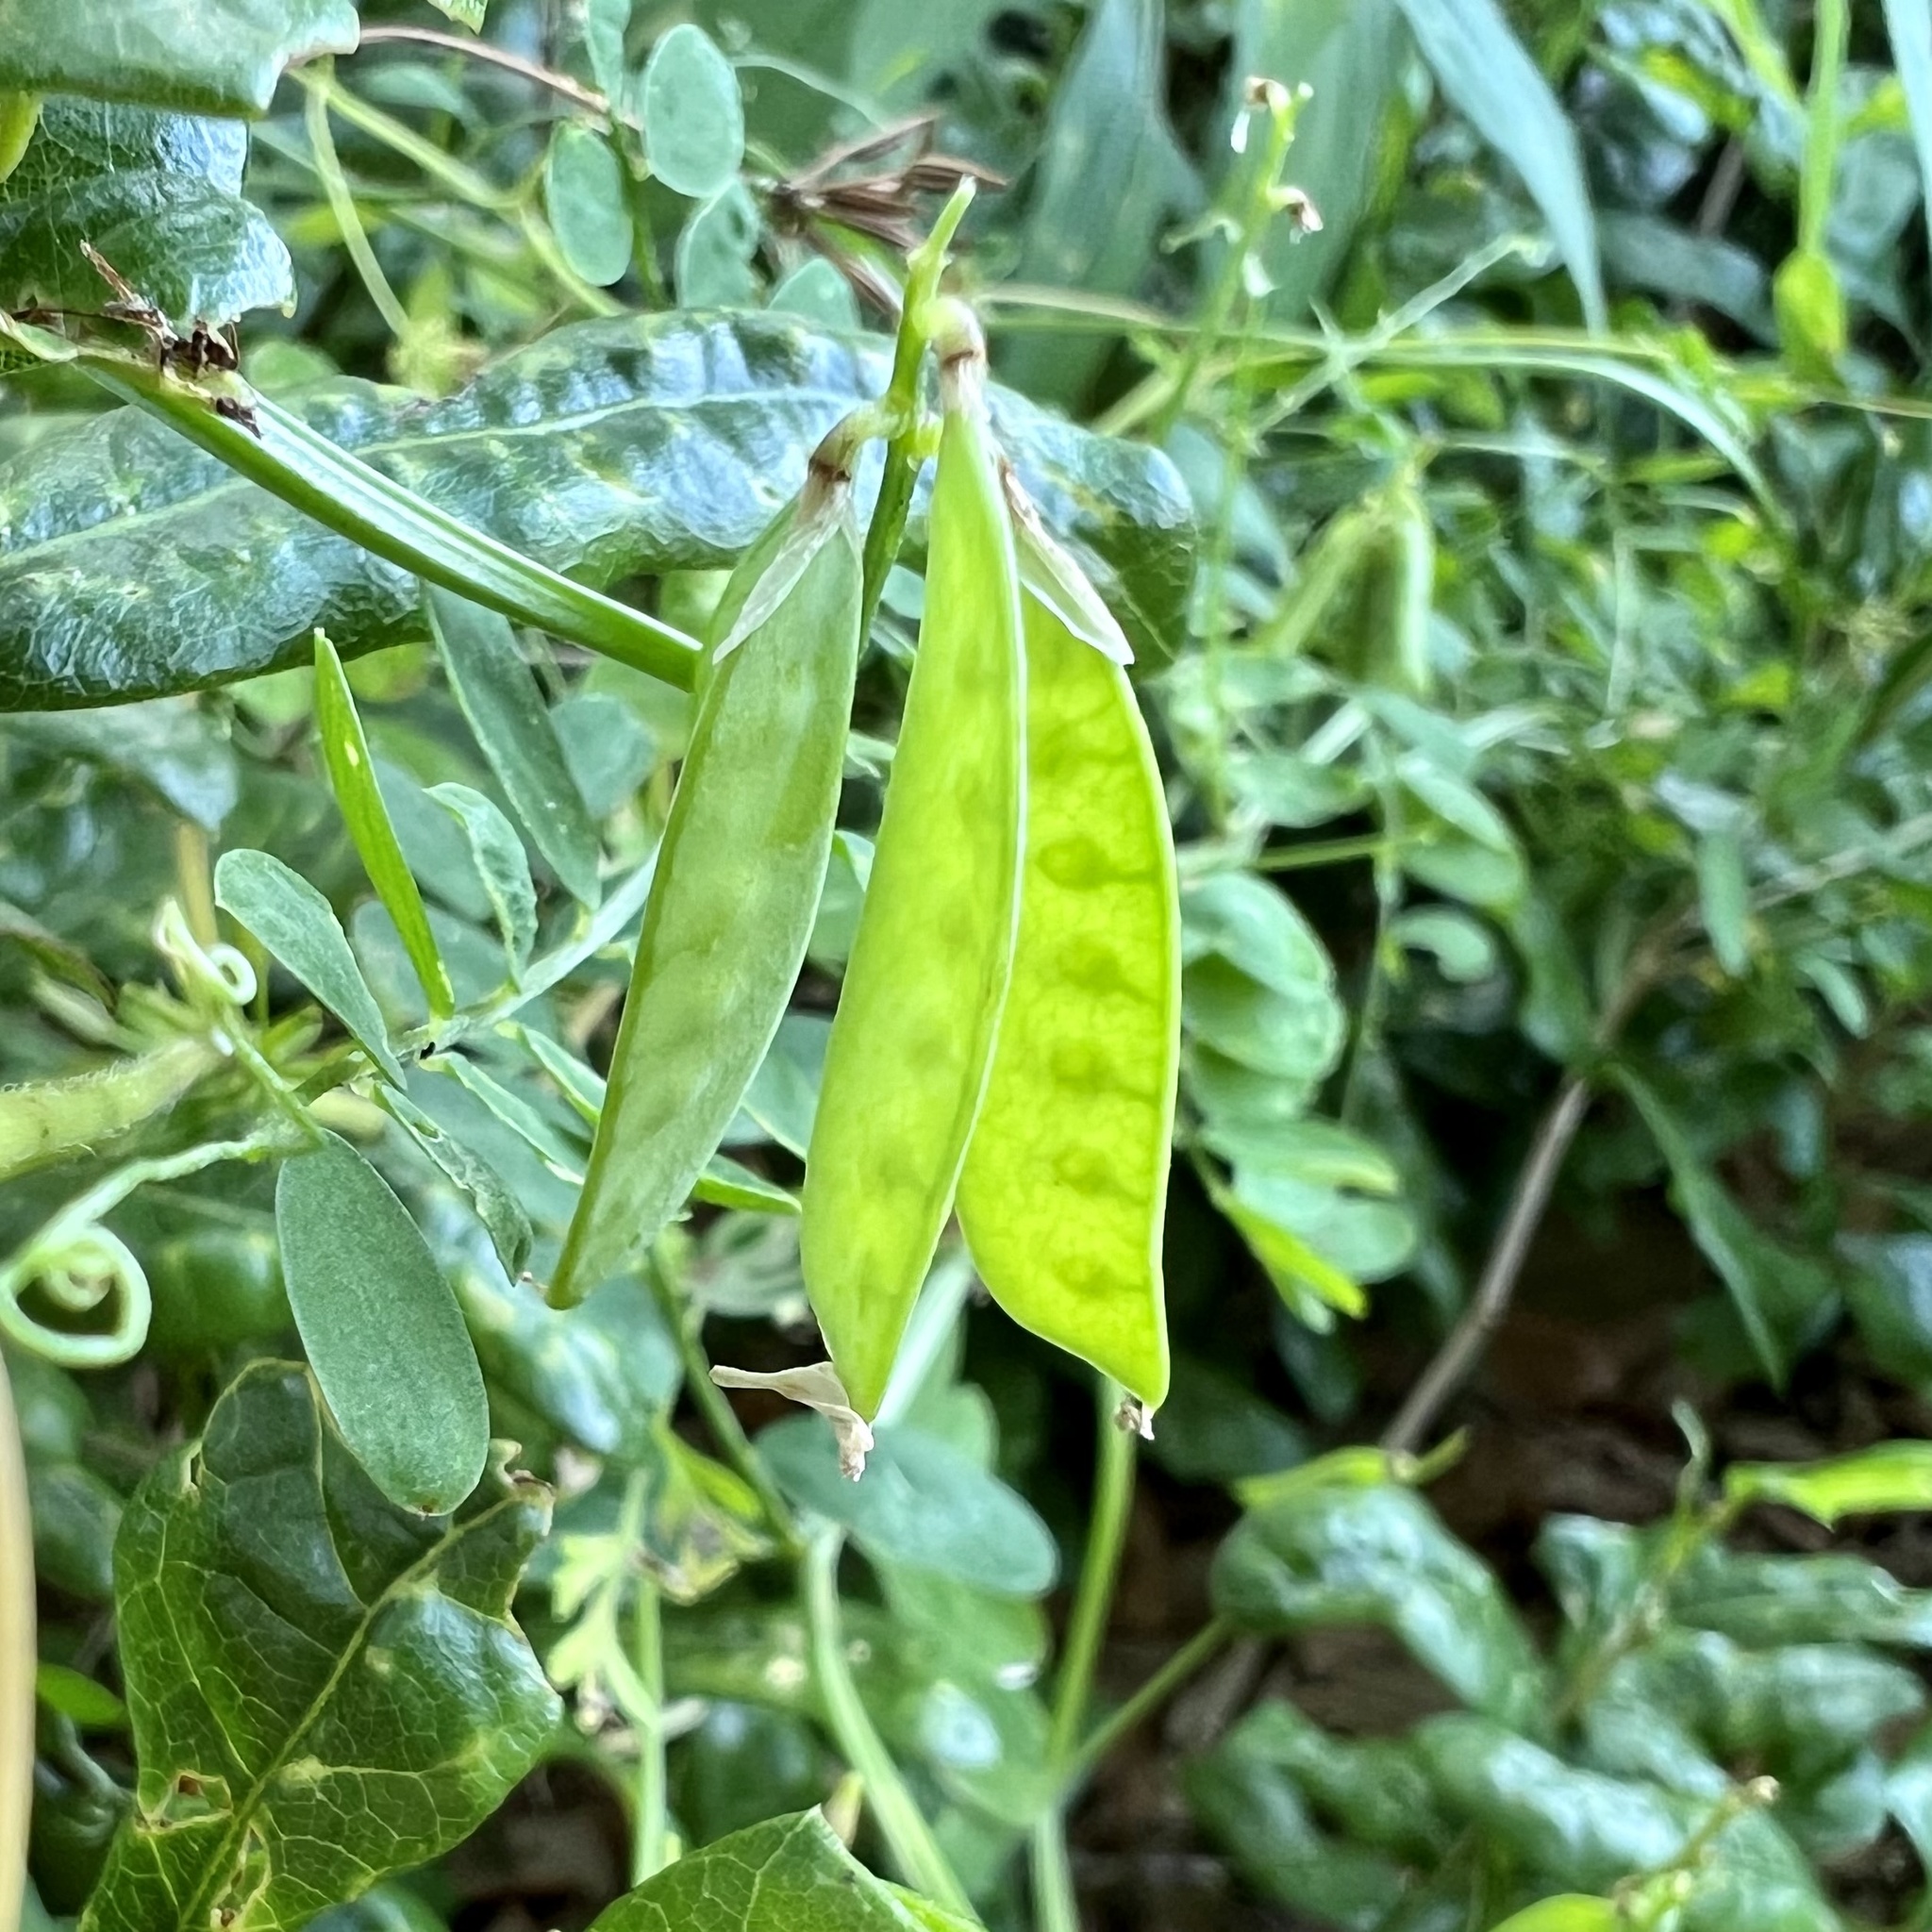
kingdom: Plantae
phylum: Tracheophyta
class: Magnoliopsida
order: Fabales
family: Fabaceae
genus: Vicia
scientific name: Vicia ludoviciana
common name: Louisiana vetch
